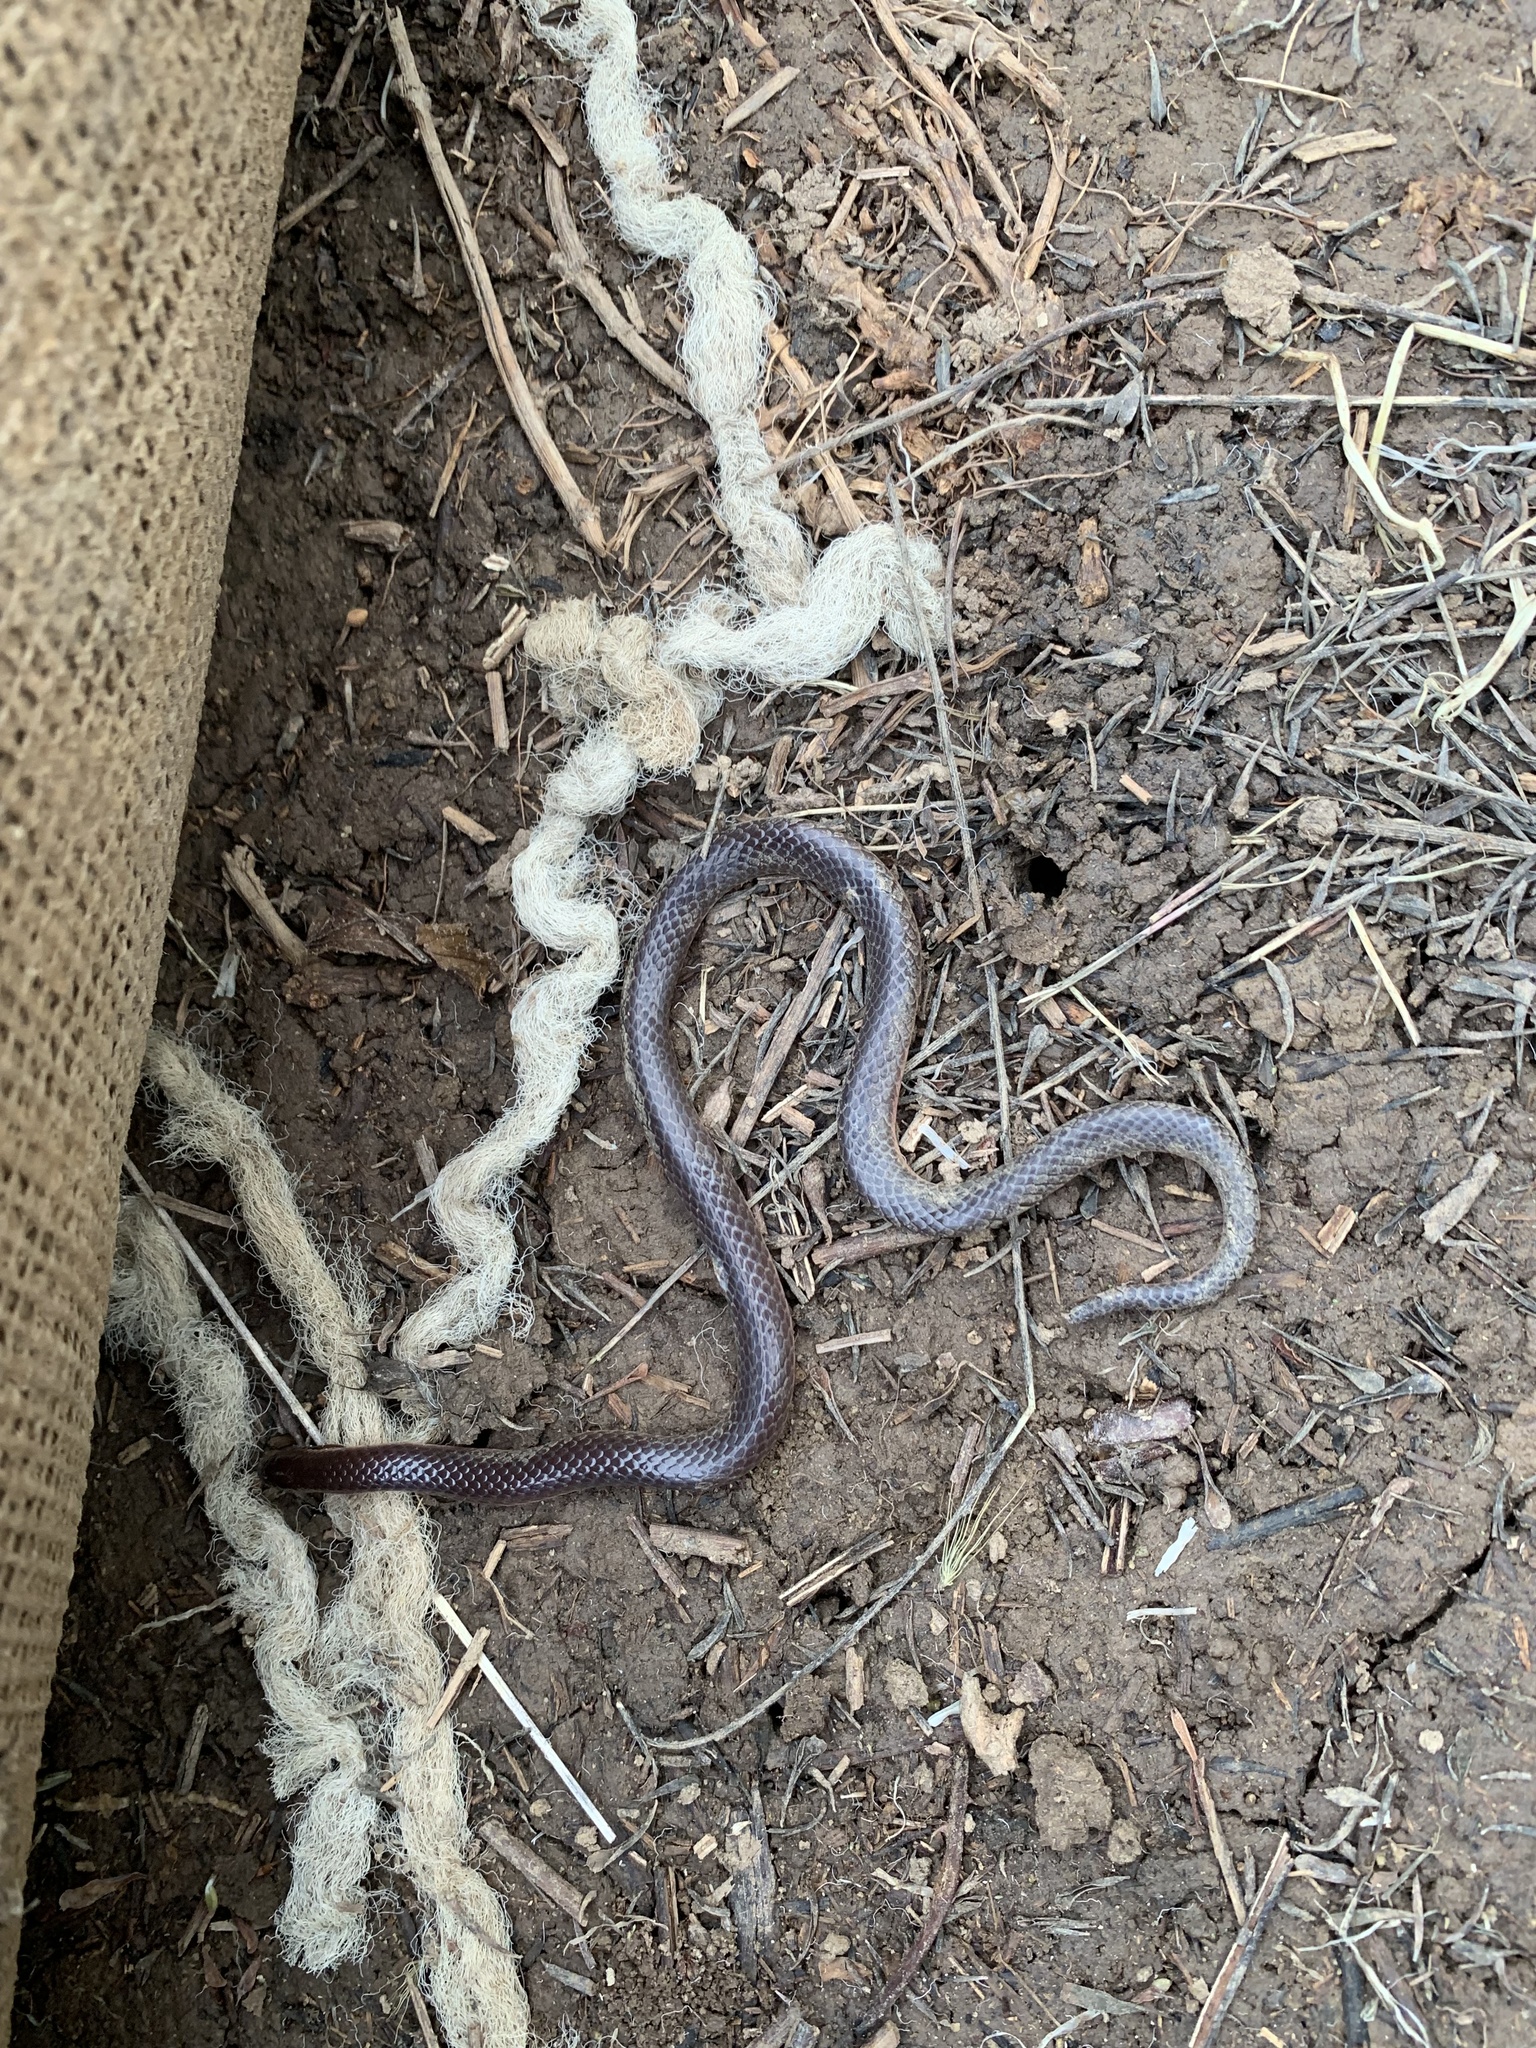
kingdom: Animalia
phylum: Chordata
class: Squamata
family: Colubridae
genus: Carphophis
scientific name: Carphophis amoenus
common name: Eastern worm snake
